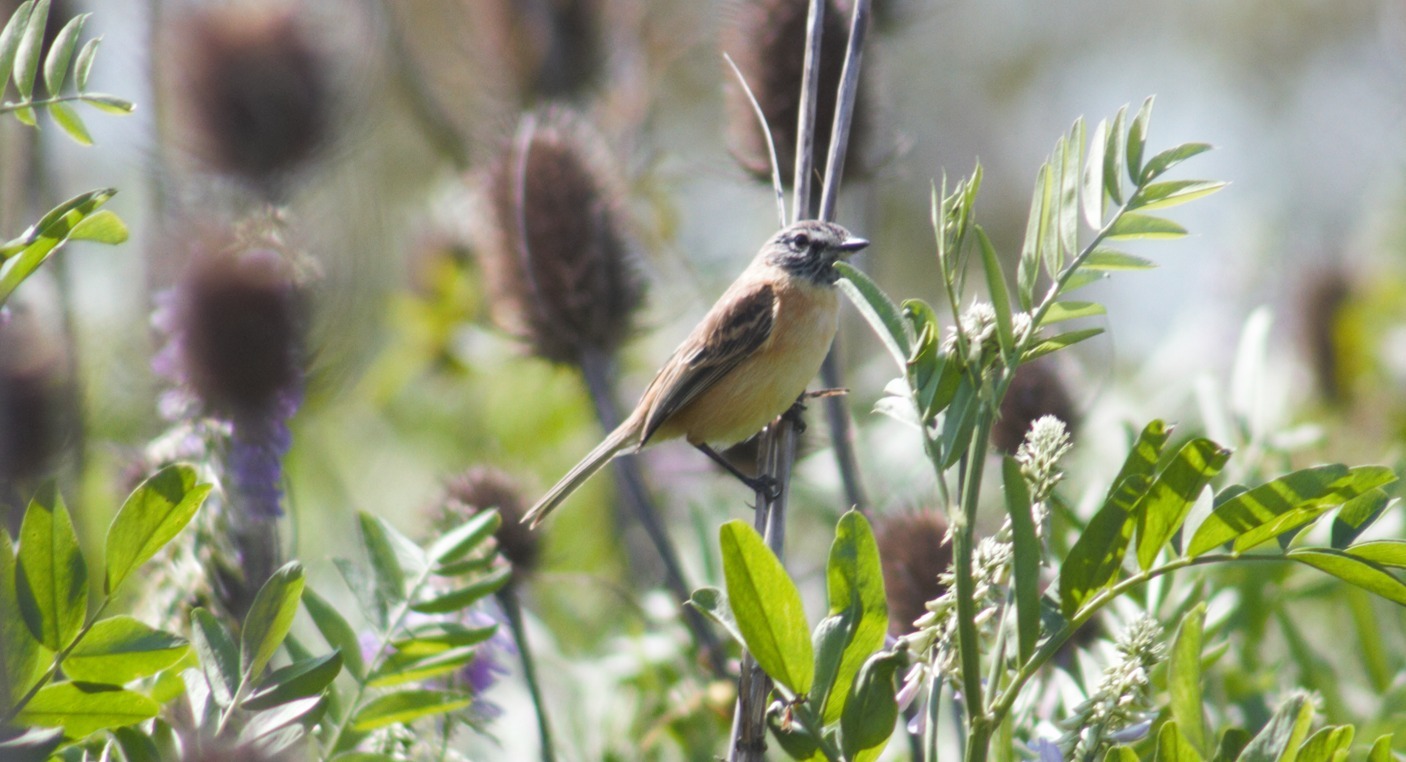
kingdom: Animalia
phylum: Chordata
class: Aves
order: Passeriformes
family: Tyrannidae
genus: Polystictus
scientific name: Polystictus pectoralis
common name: Bearded tachuri
